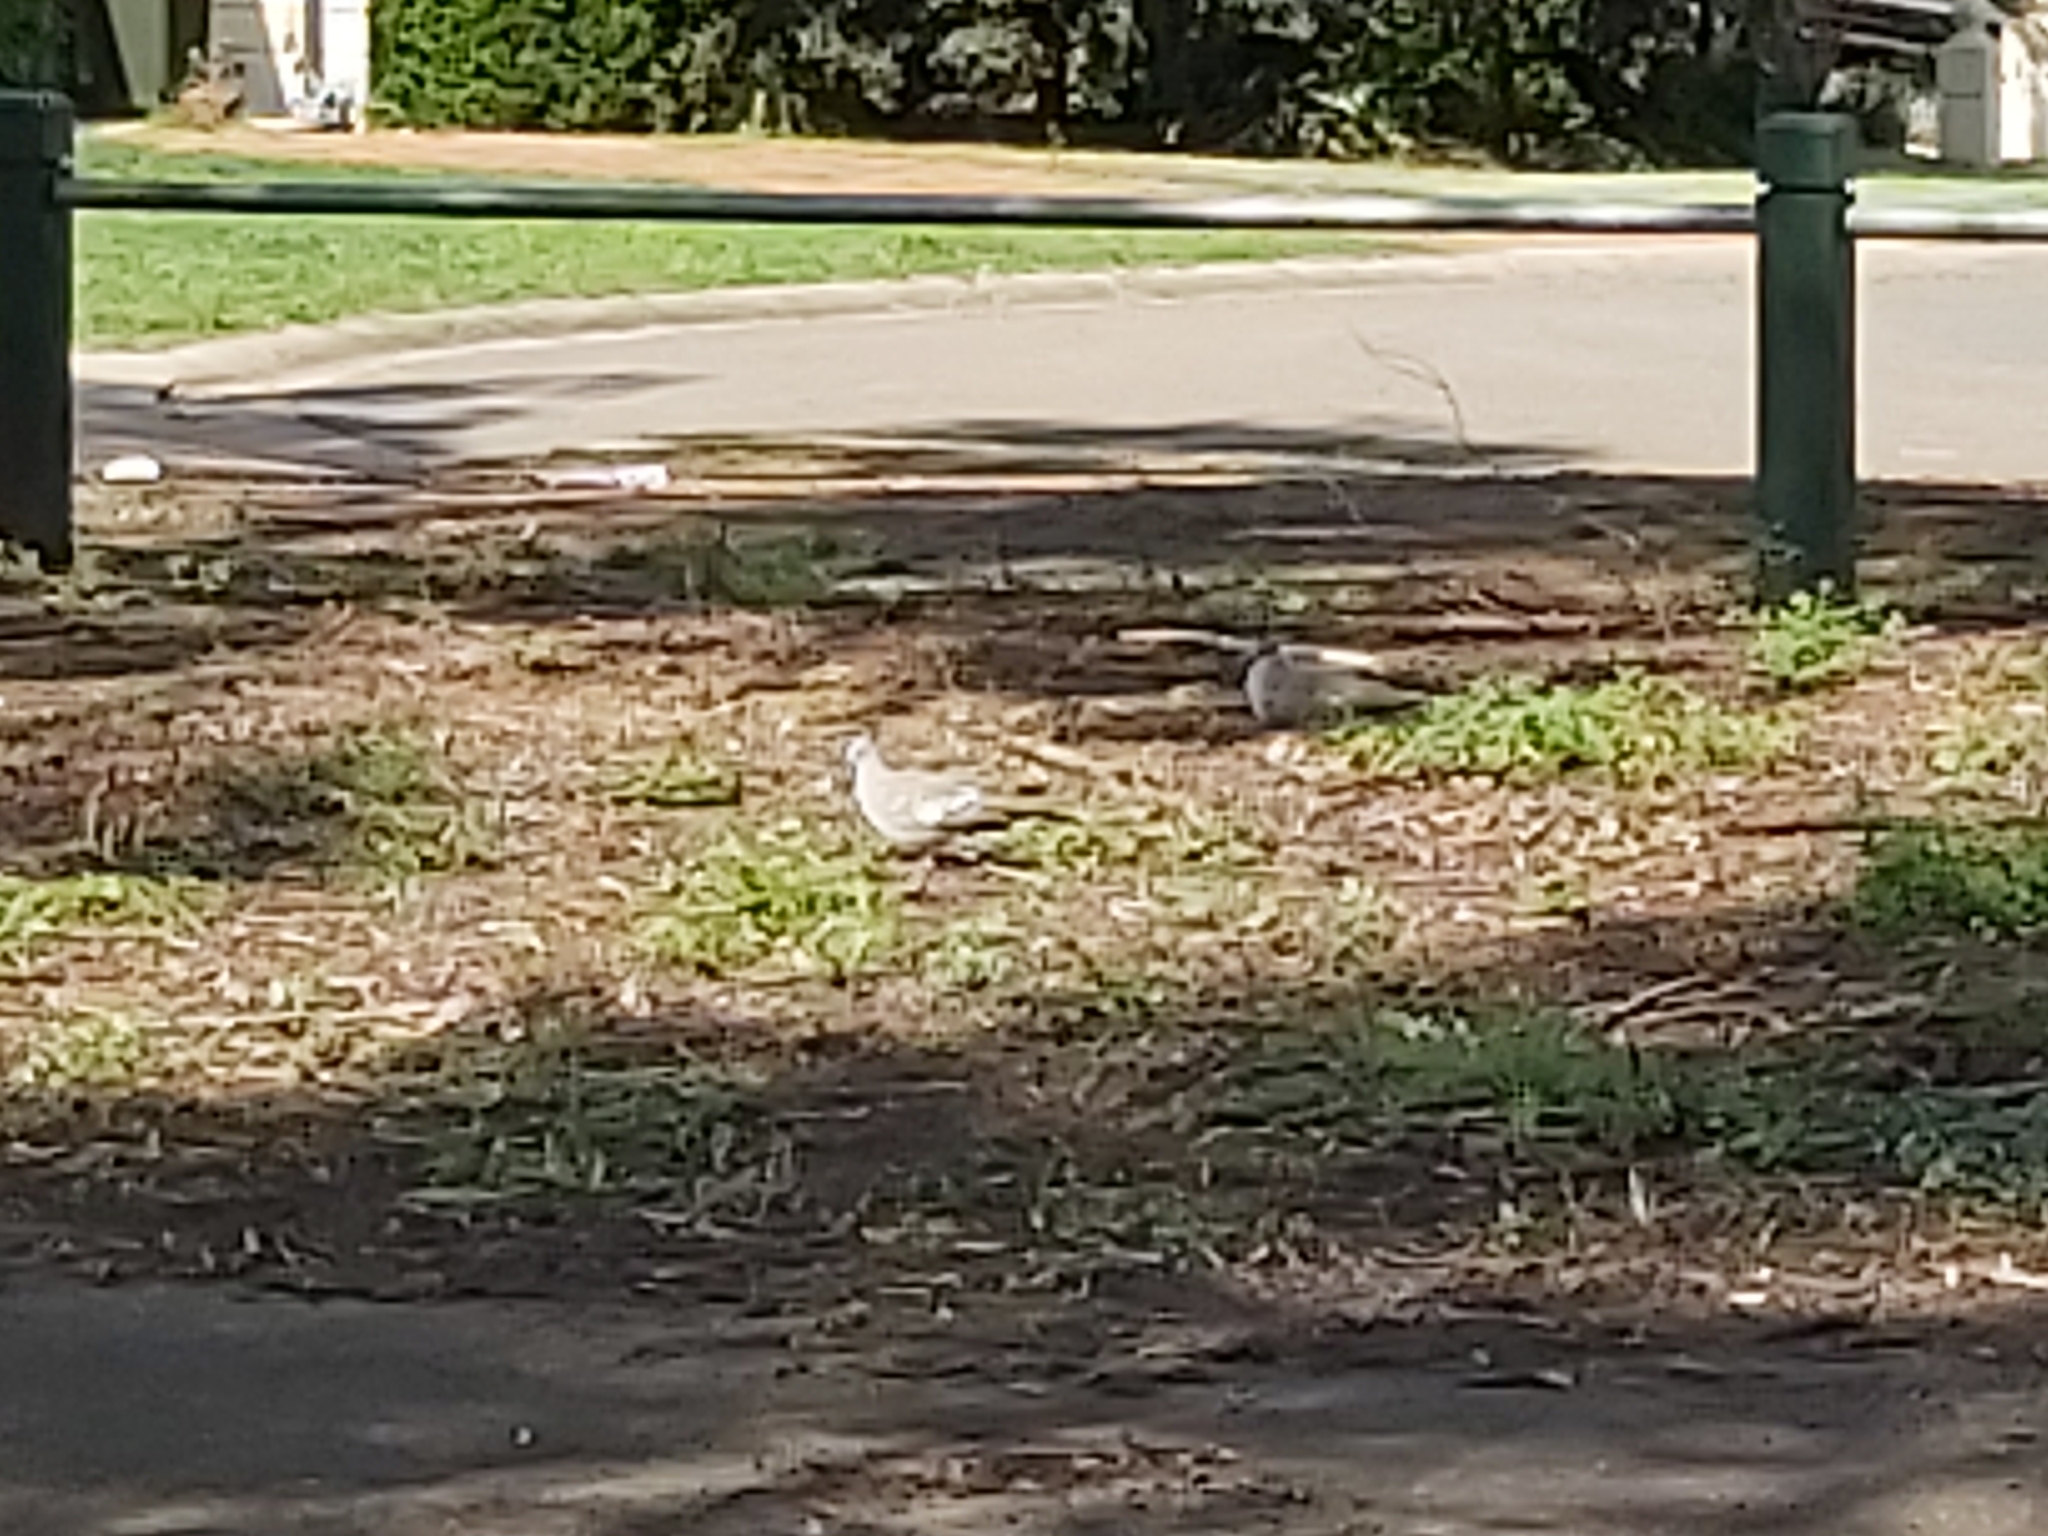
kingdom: Animalia
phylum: Chordata
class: Aves
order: Columbiformes
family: Columbidae
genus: Ocyphaps
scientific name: Ocyphaps lophotes
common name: Crested pigeon
